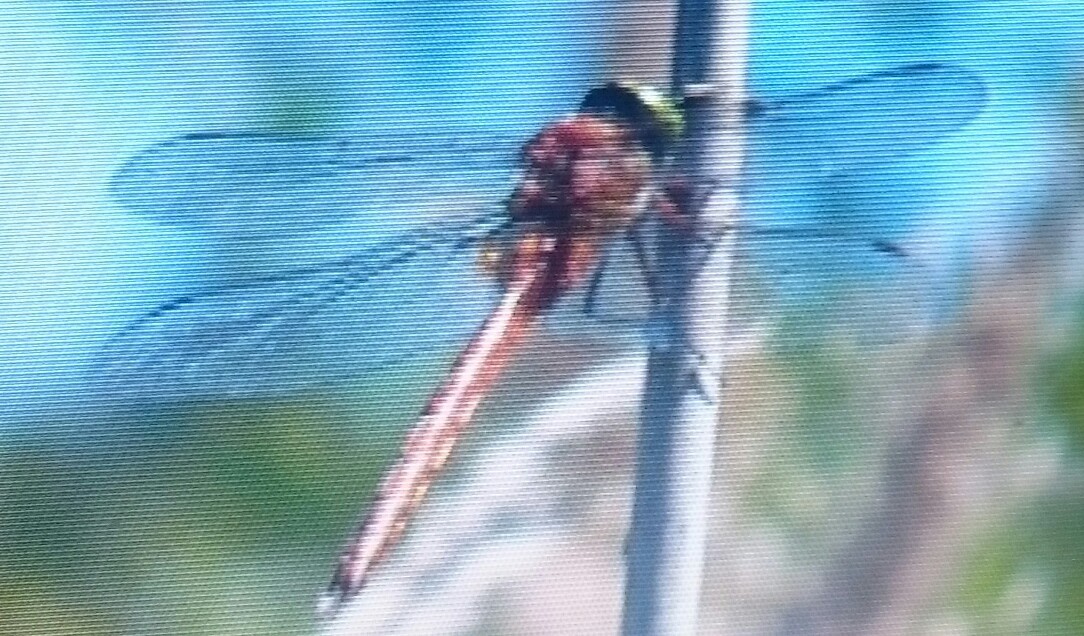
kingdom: Animalia
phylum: Arthropoda
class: Insecta
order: Odonata
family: Aeshnidae
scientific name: Aeshnidae
